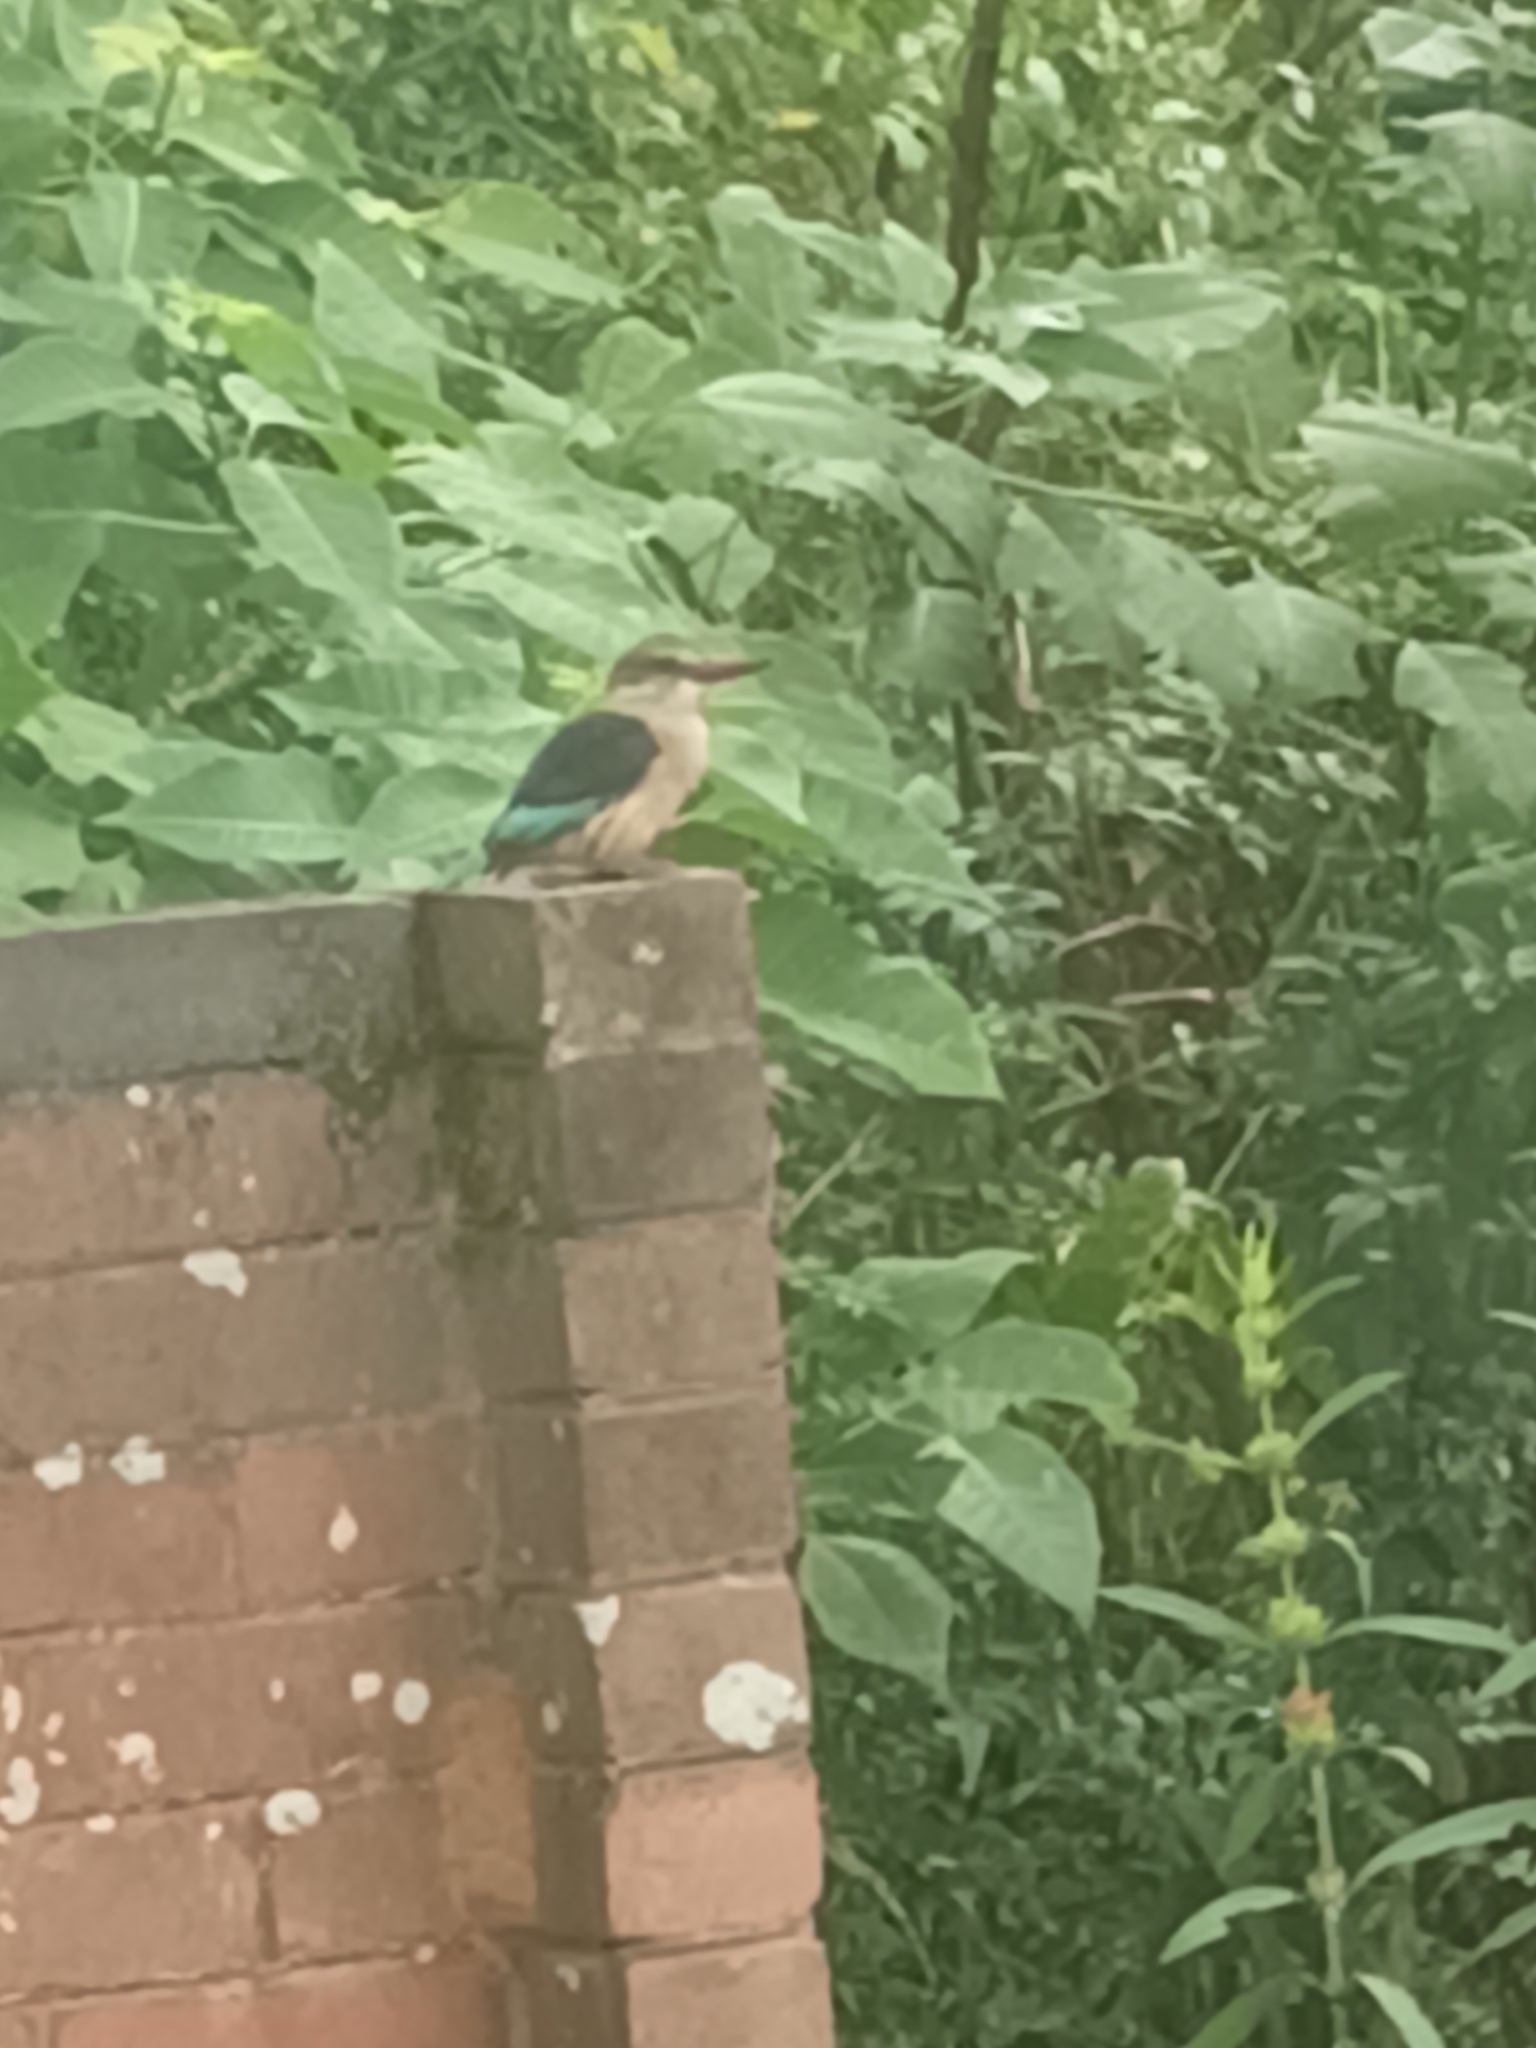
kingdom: Animalia
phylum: Chordata
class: Aves
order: Coraciiformes
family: Alcedinidae
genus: Halcyon
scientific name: Halcyon albiventris
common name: Brown-hooded kingfisher
